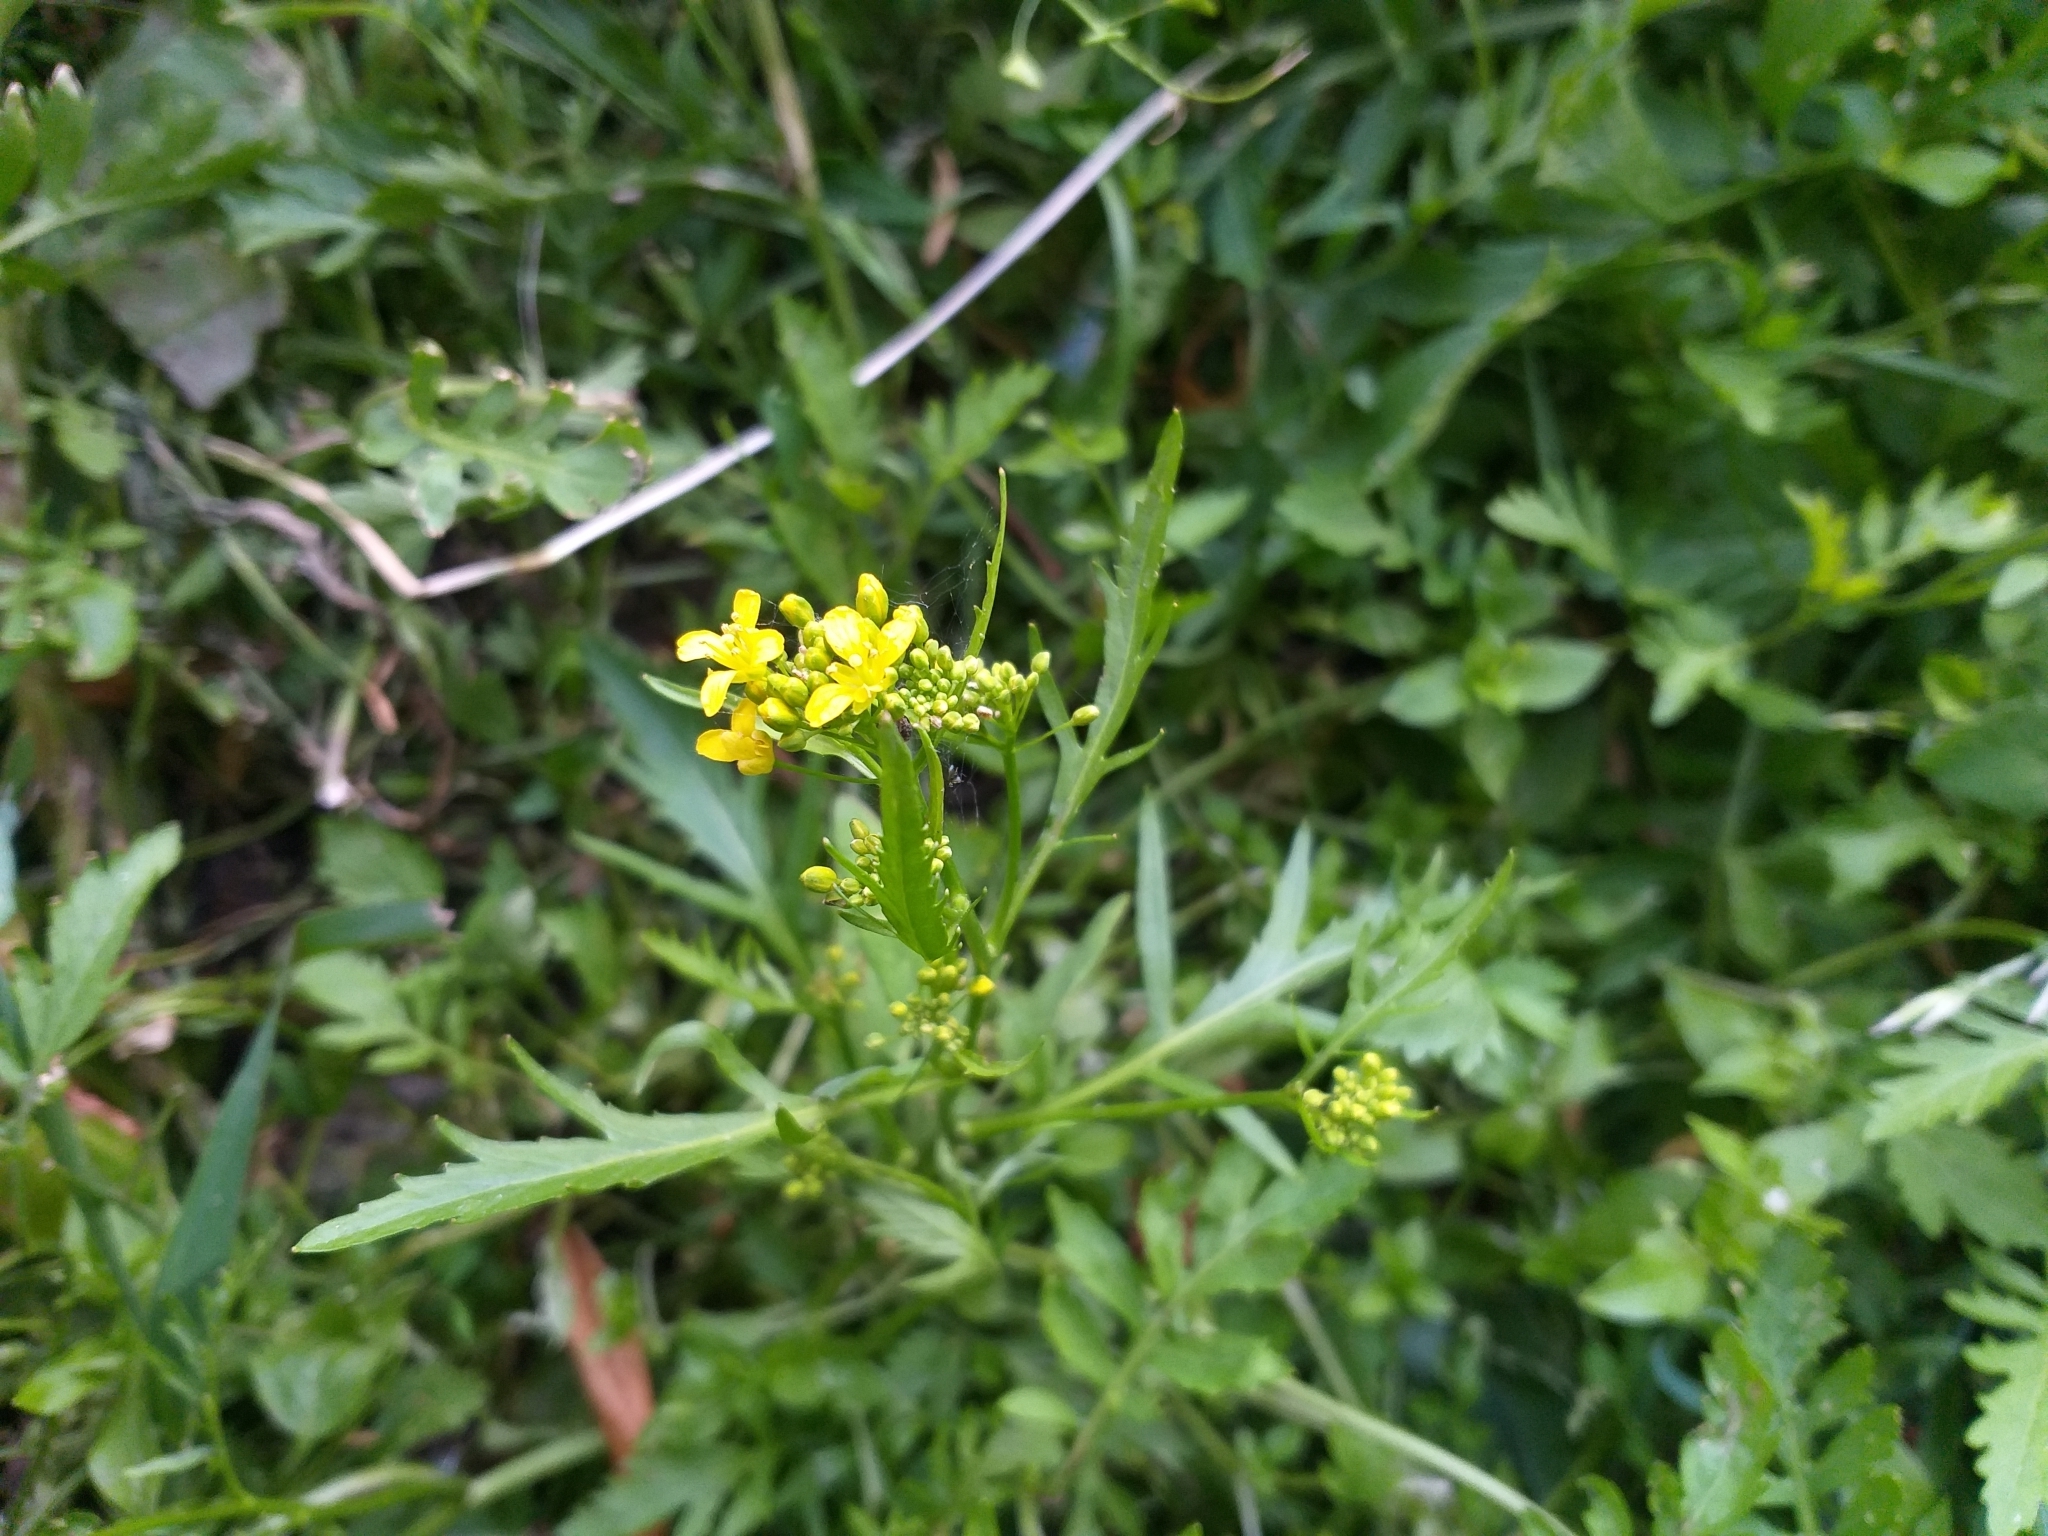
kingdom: Plantae
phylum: Tracheophyta
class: Magnoliopsida
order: Brassicales
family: Brassicaceae
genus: Rorippa
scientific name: Rorippa sylvestris
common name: Creeping yellowcress
